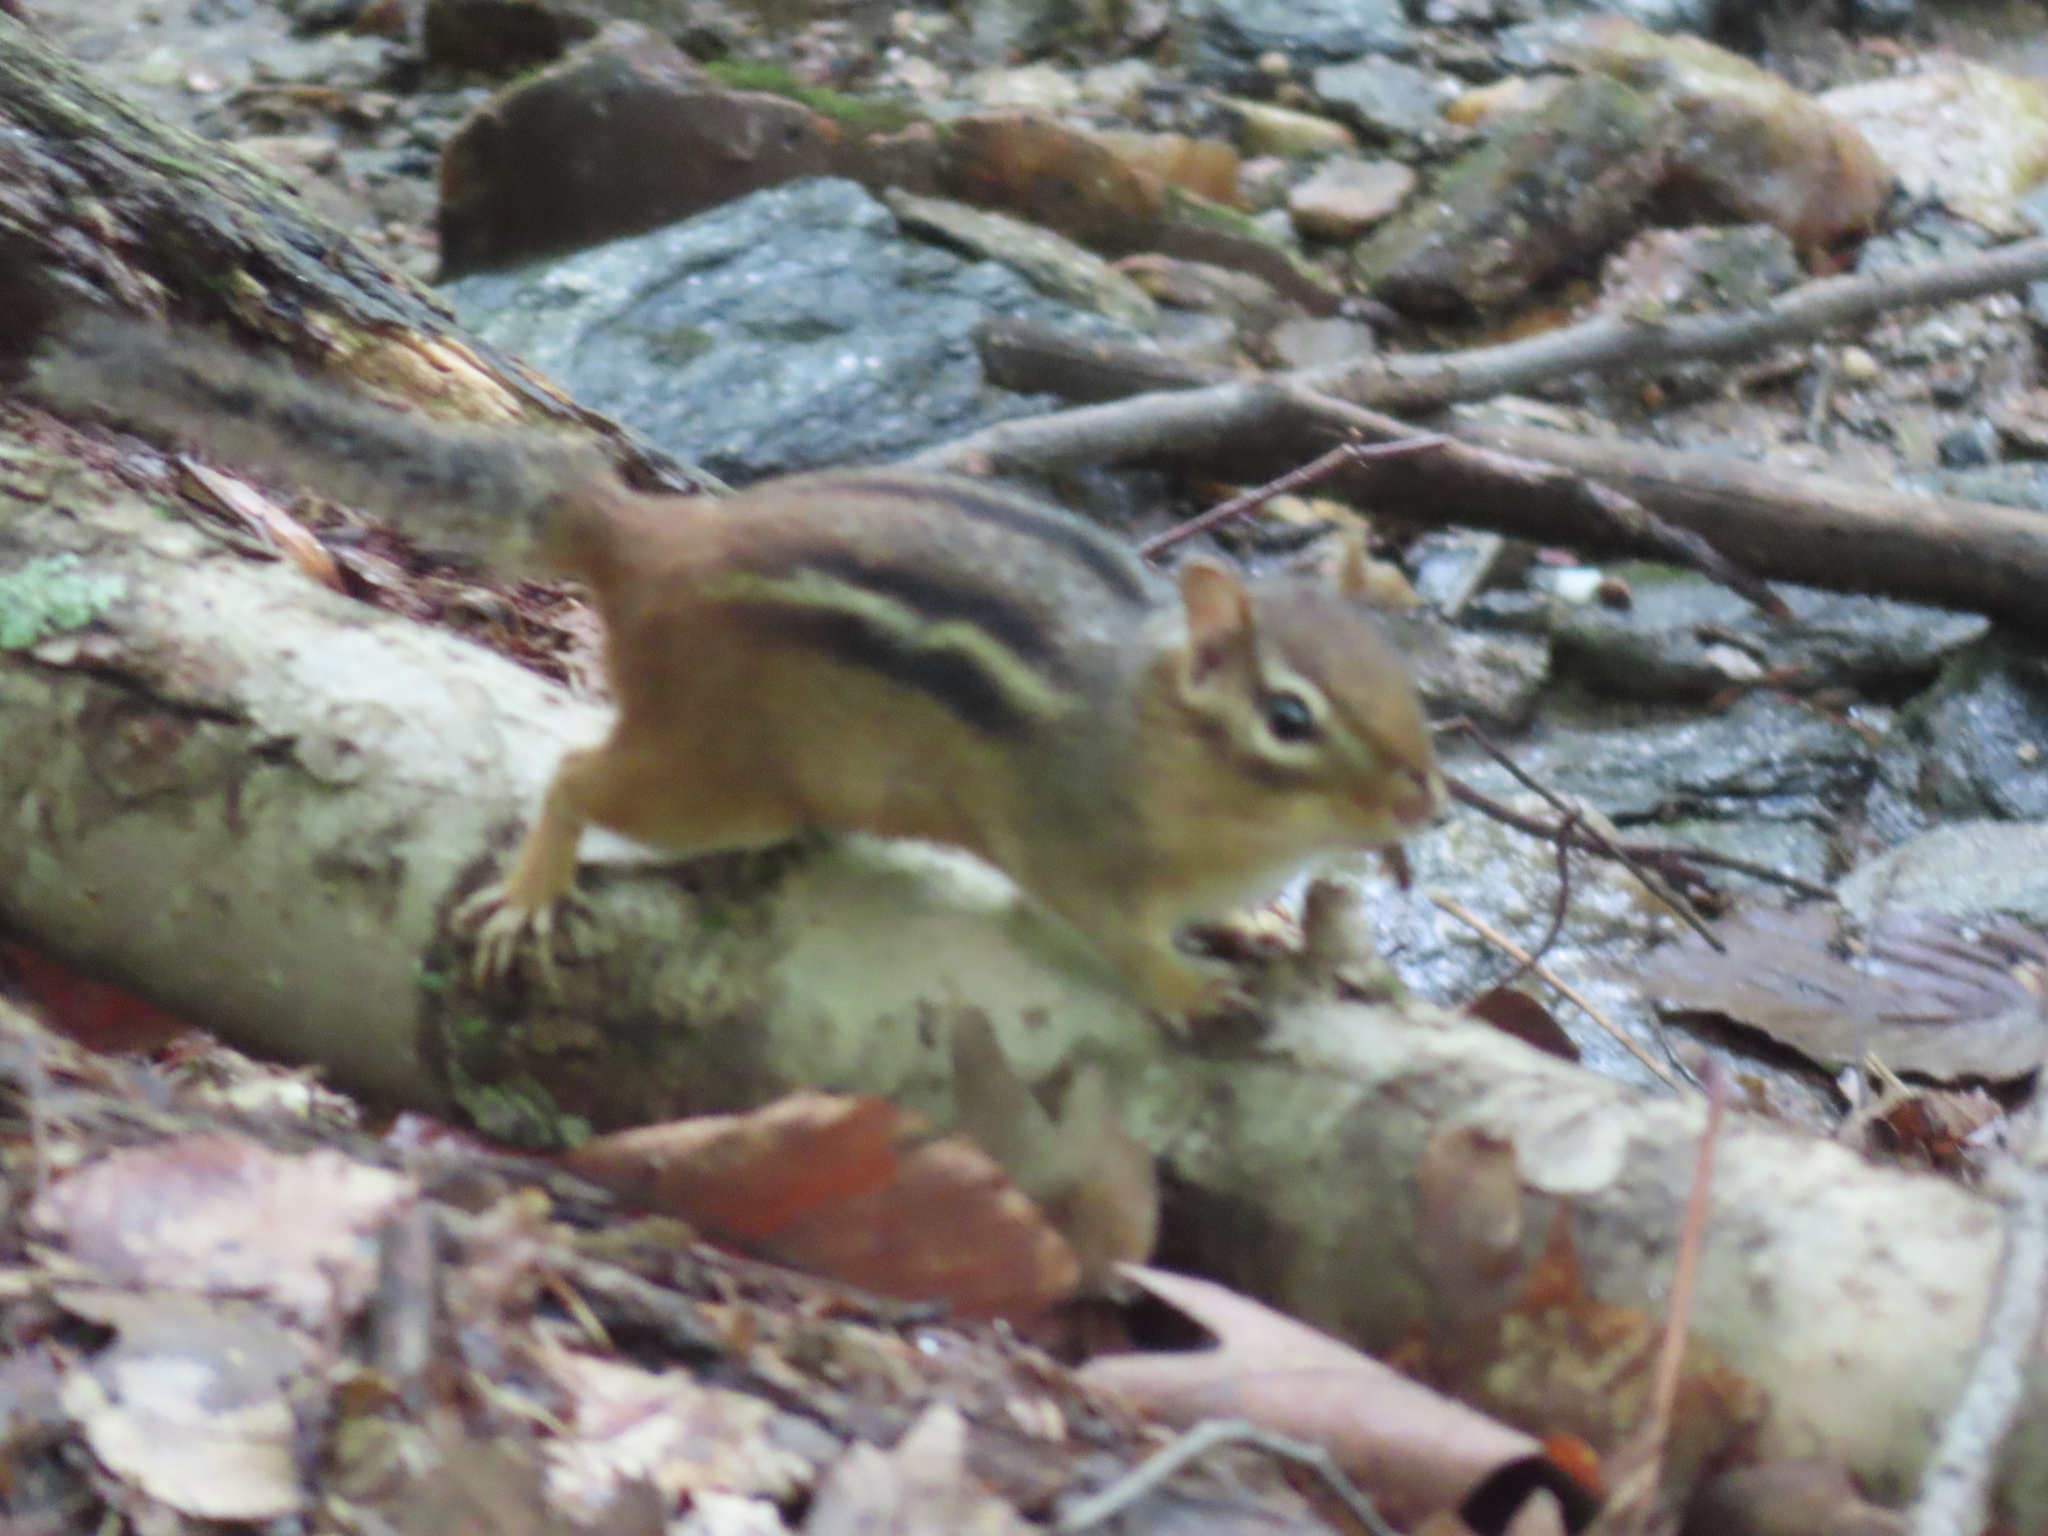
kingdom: Animalia
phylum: Chordata
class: Mammalia
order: Rodentia
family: Sciuridae
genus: Tamias
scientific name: Tamias striatus
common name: Eastern chipmunk
